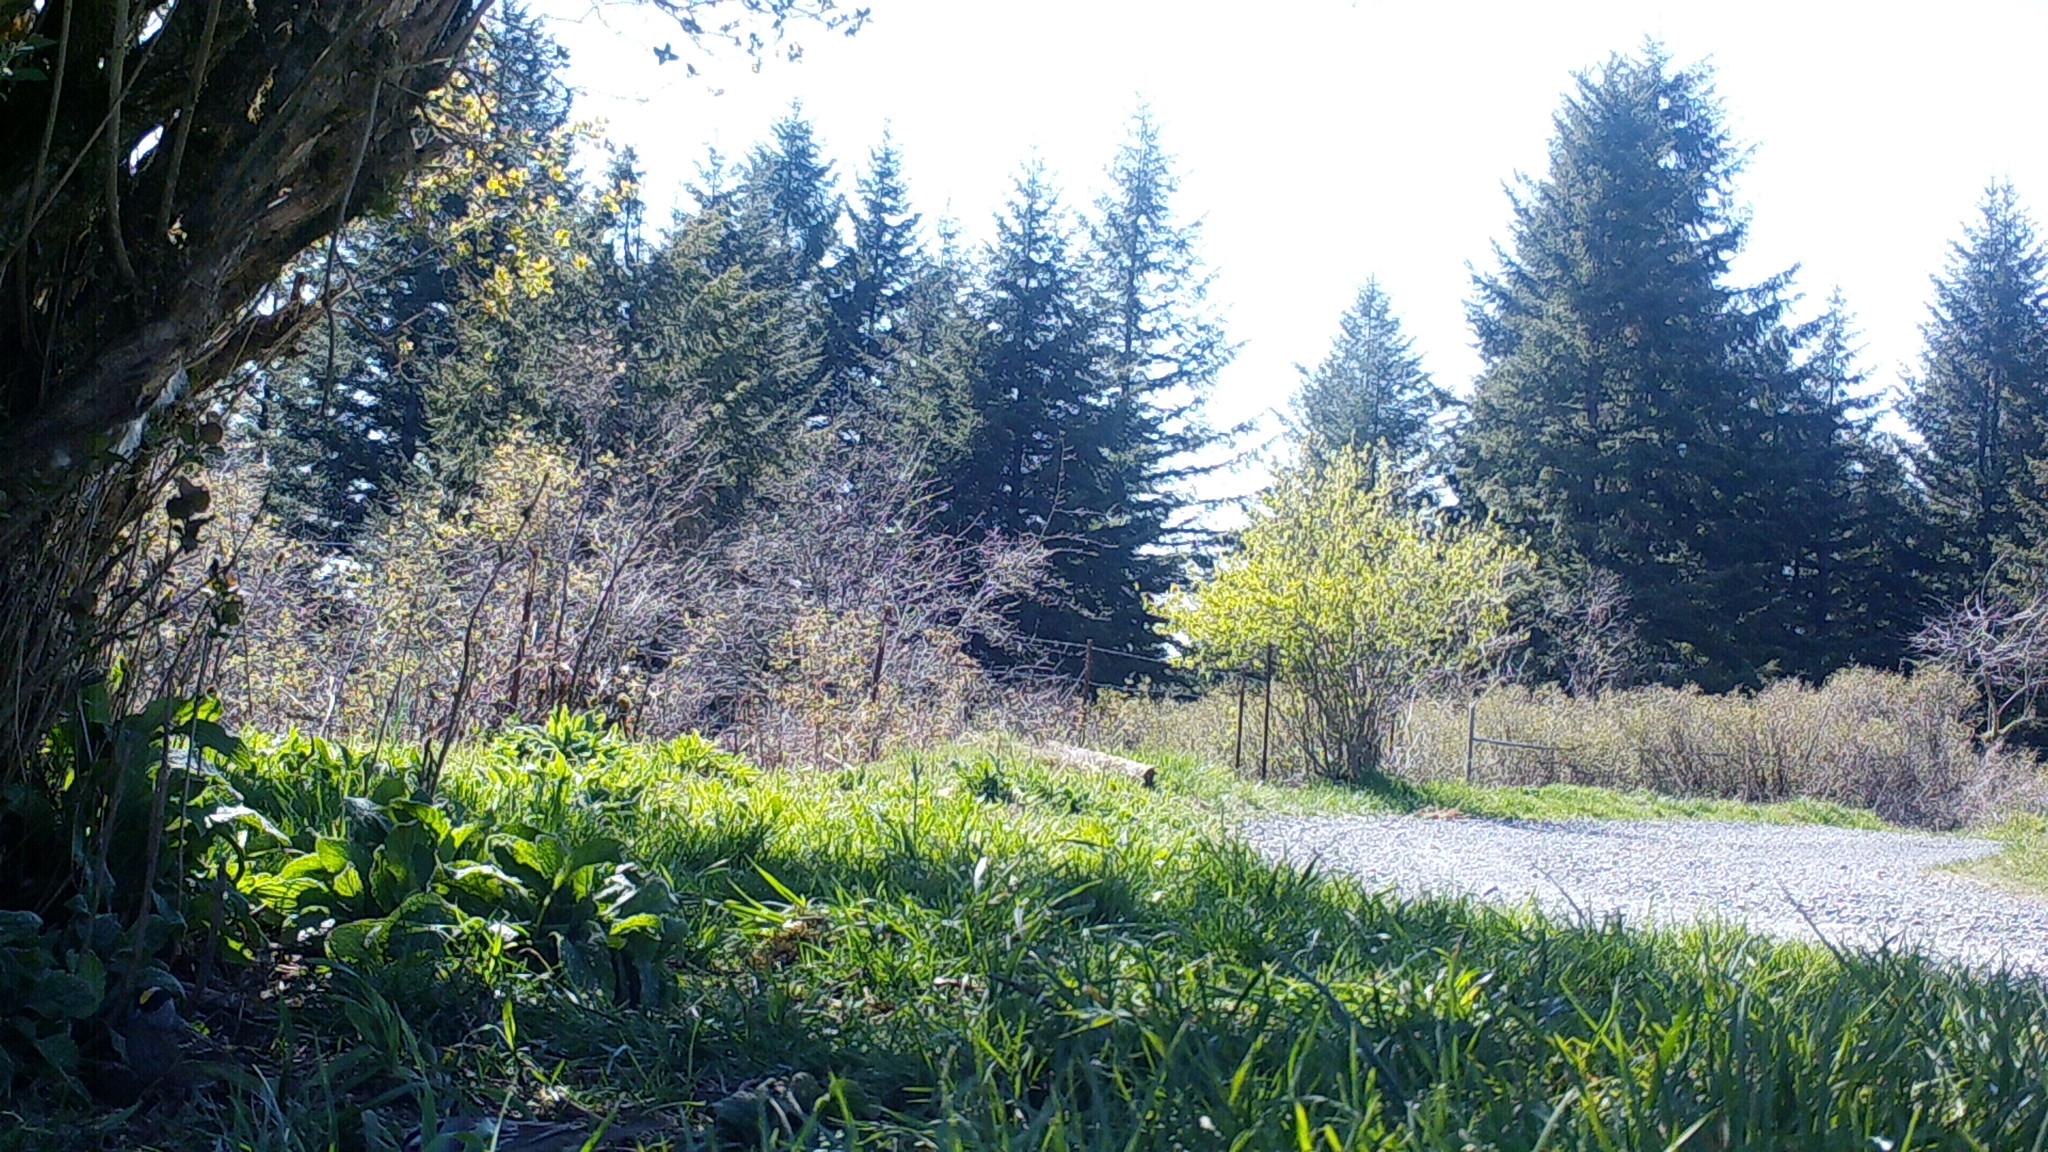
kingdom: Animalia
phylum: Chordata
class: Aves
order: Passeriformes
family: Passerellidae
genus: Zonotrichia
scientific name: Zonotrichia atricapilla
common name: Golden-crowned sparrow
